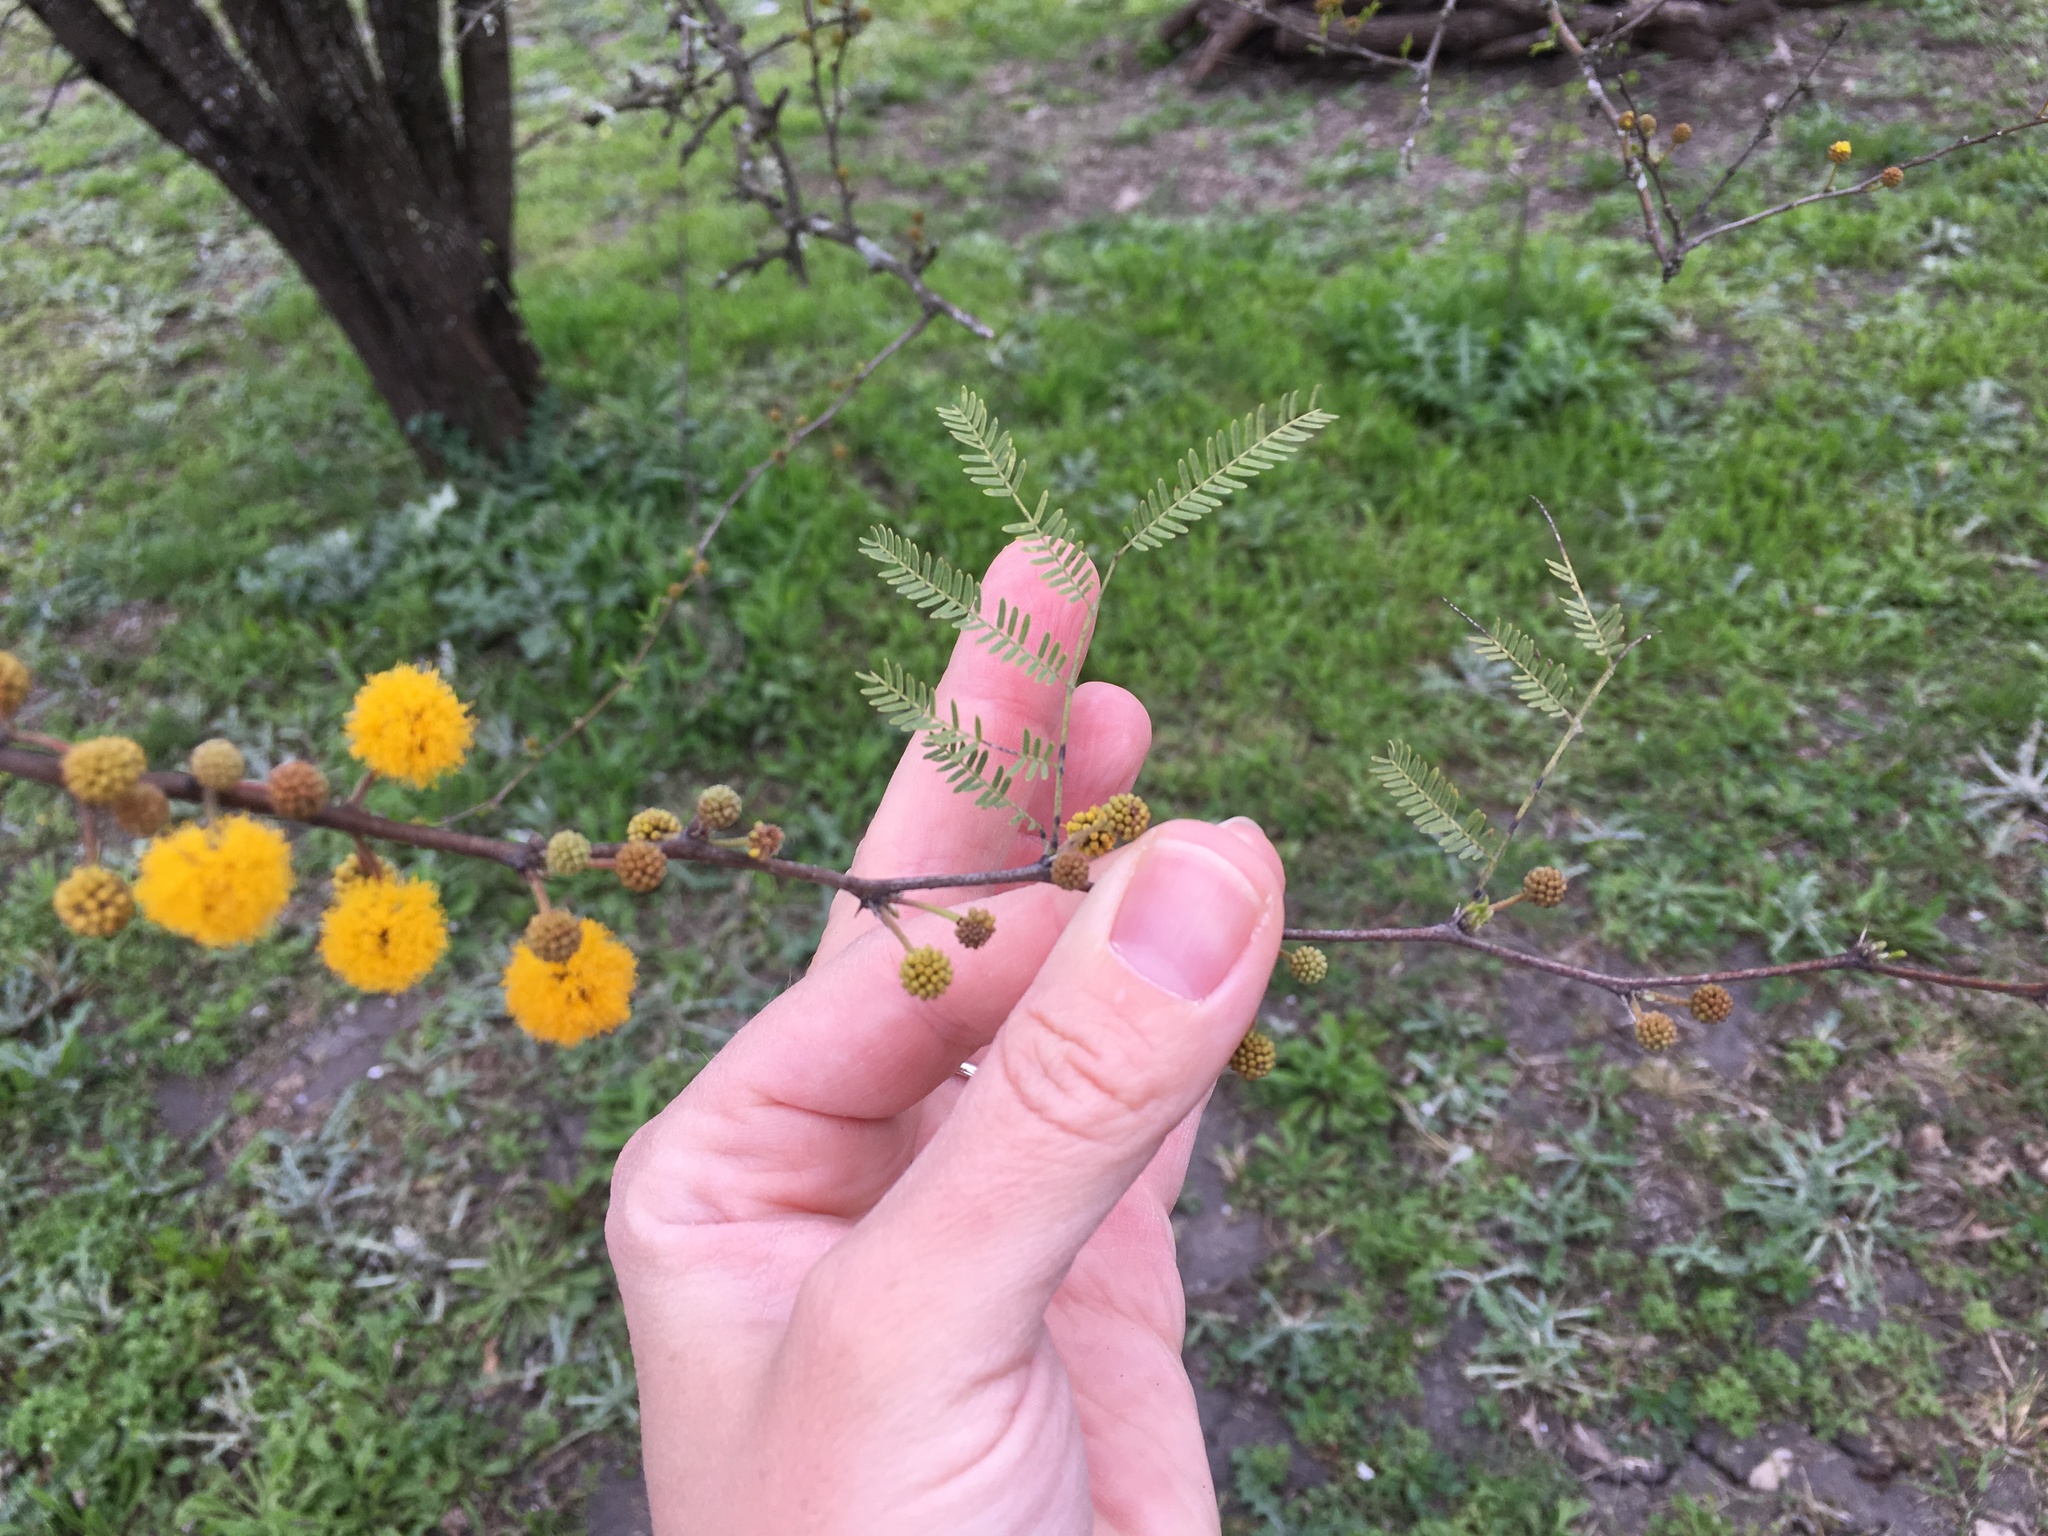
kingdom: Plantae
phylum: Tracheophyta
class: Magnoliopsida
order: Fabales
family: Fabaceae
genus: Vachellia
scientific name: Vachellia farnesiana
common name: Sweet acacia
